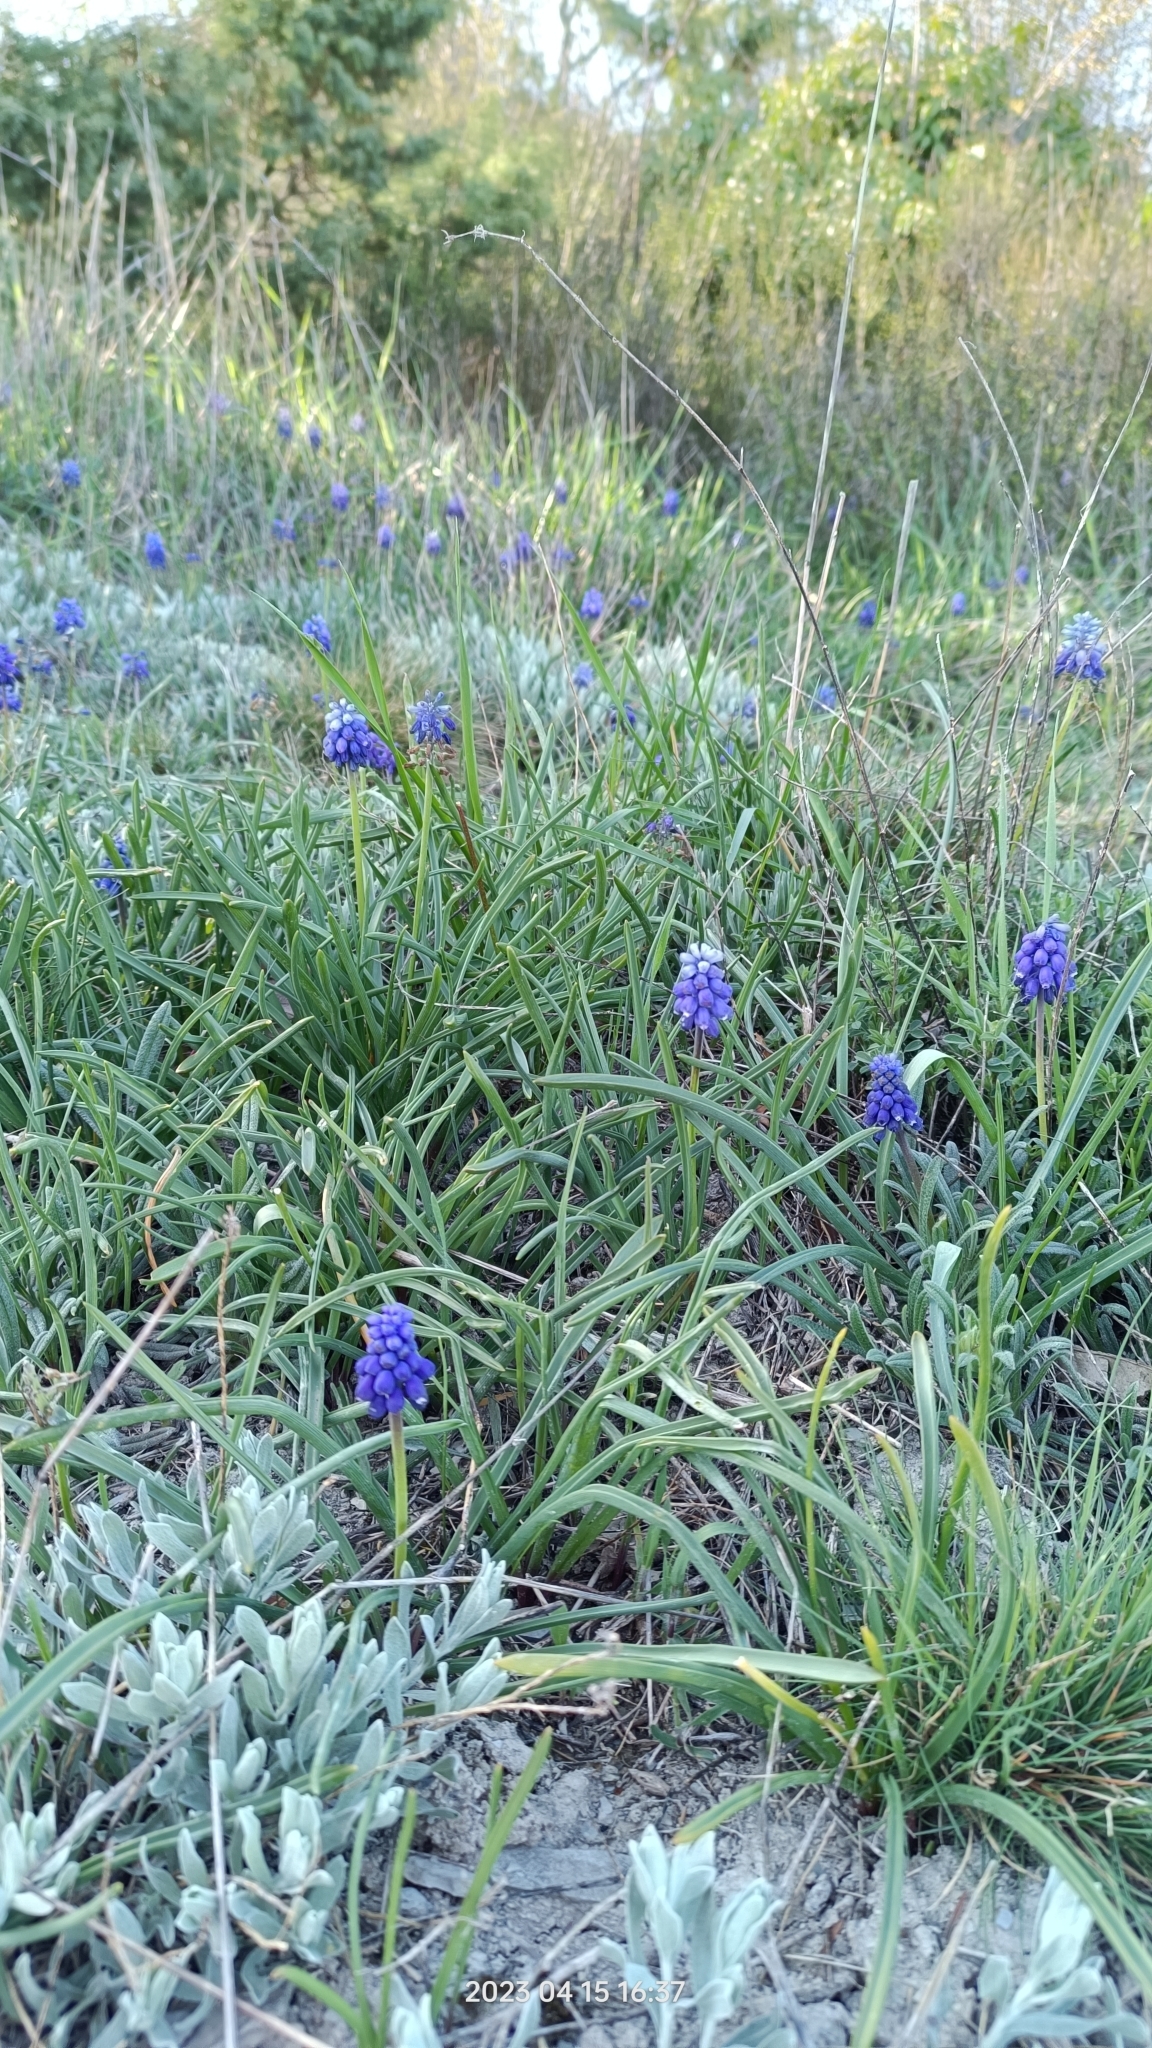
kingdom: Plantae
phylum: Tracheophyta
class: Liliopsida
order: Asparagales
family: Asparagaceae
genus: Muscari
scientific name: Muscari neglectum
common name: Grape-hyacinth
